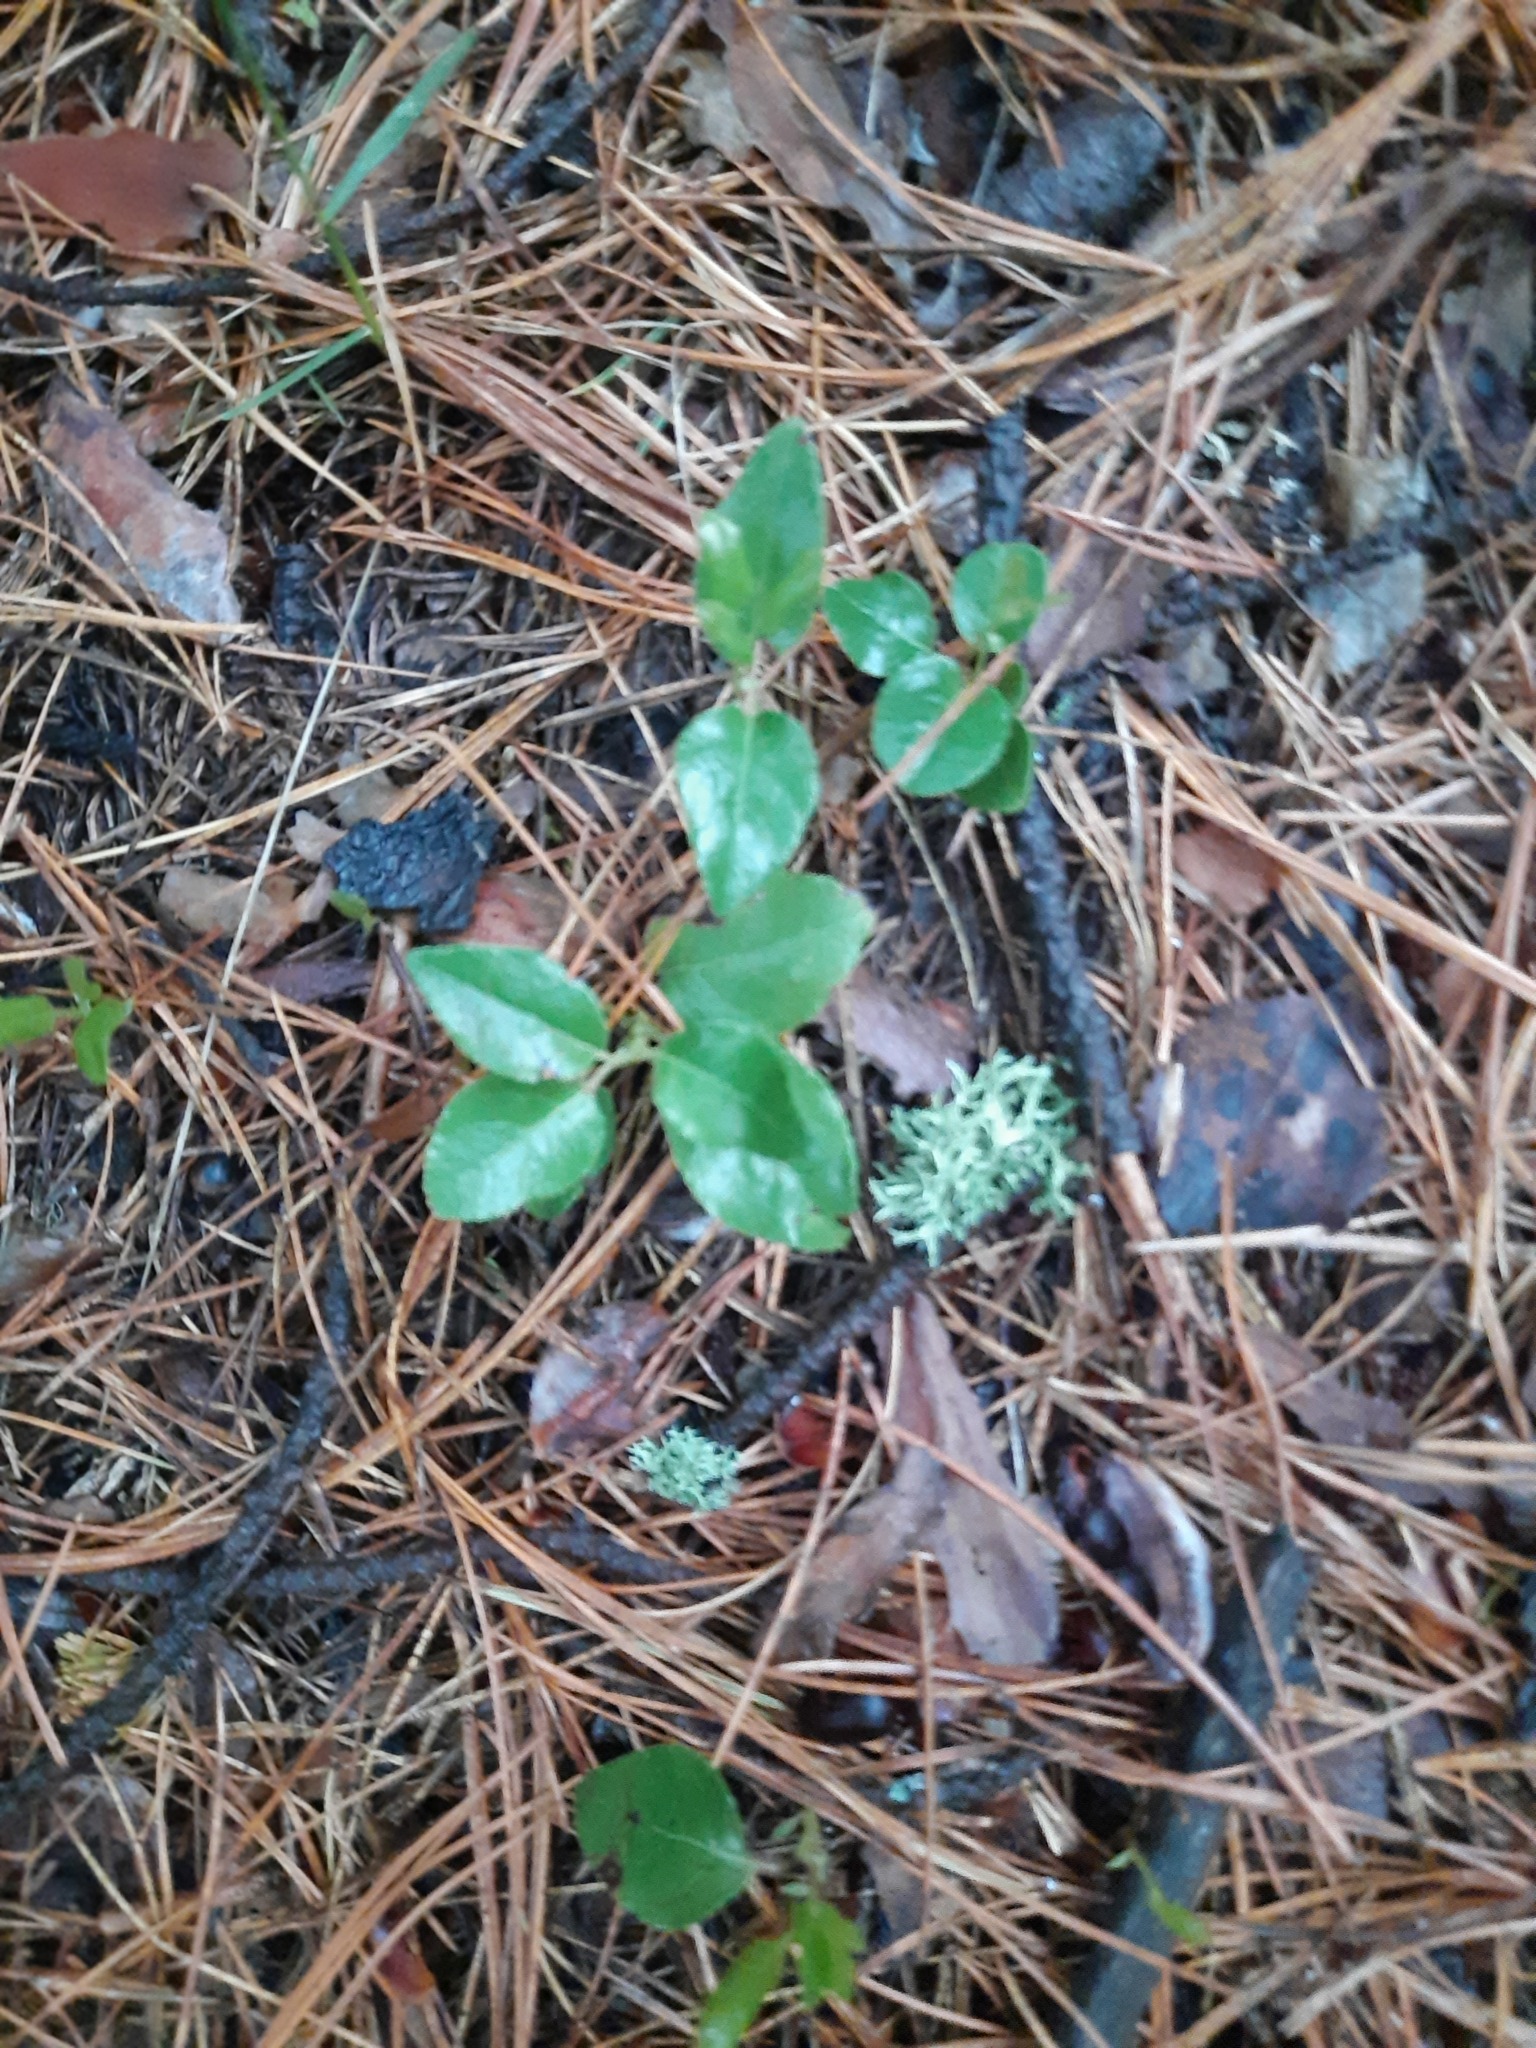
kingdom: Plantae
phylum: Tracheophyta
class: Magnoliopsida
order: Ericales
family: Ericaceae
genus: Orthilia
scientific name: Orthilia secunda
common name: One-sided orthilia
